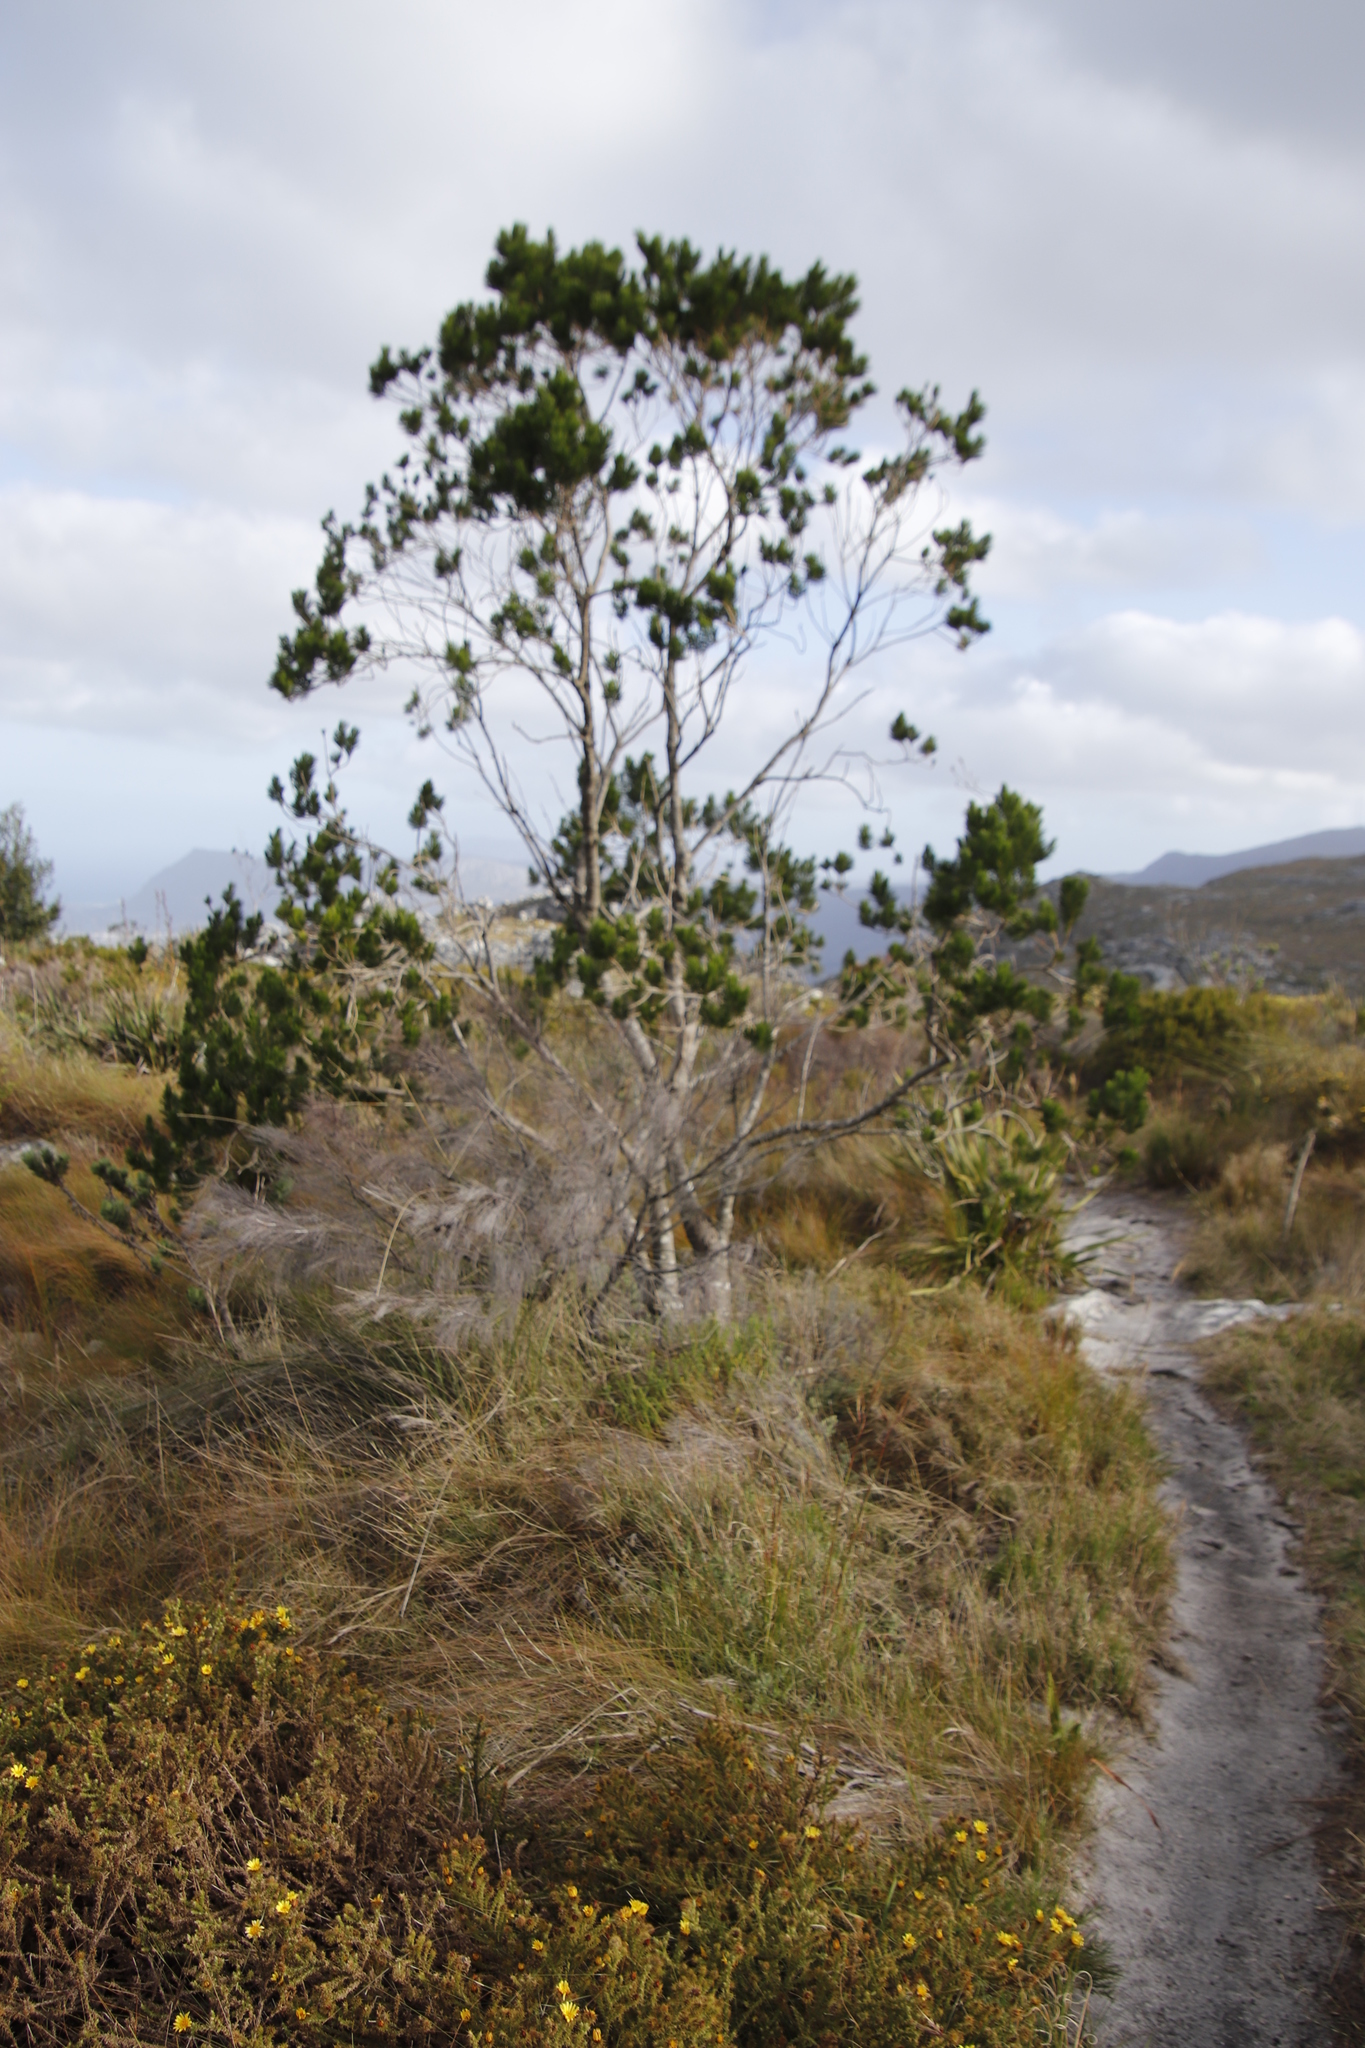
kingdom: Plantae
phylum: Tracheophyta
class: Magnoliopsida
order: Fabales
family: Fabaceae
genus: Psoralea
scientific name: Psoralea pinnata
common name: African scurfpea
